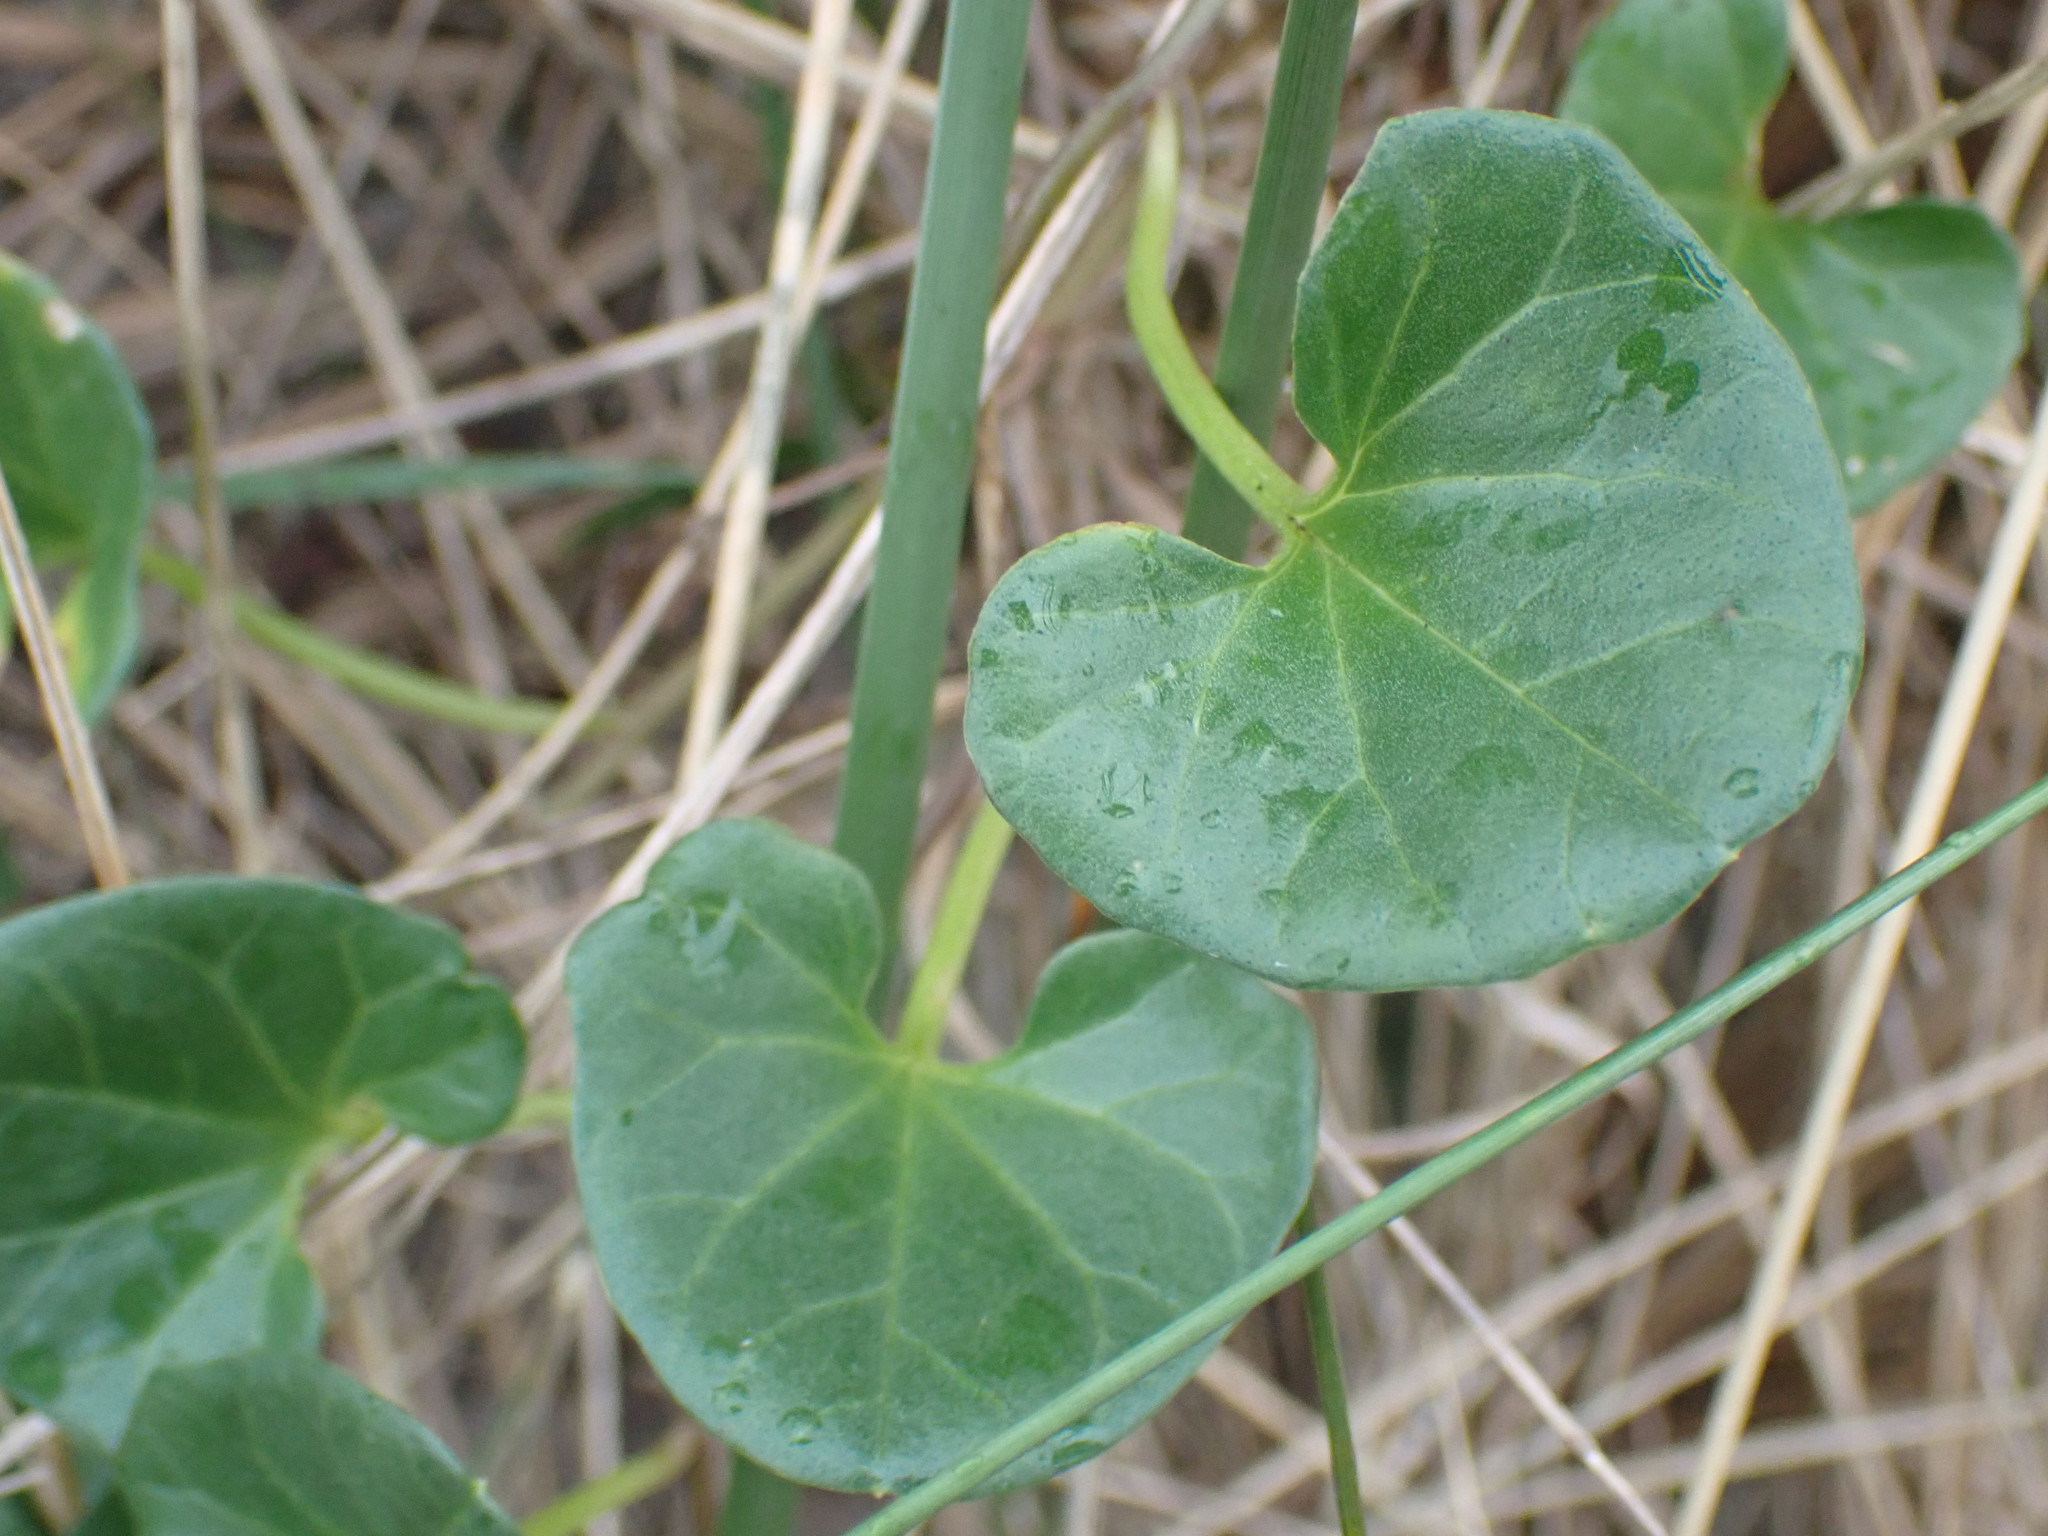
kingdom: Plantae
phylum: Tracheophyta
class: Magnoliopsida
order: Solanales
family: Convolvulaceae
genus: Calystegia
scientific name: Calystegia soldanella
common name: Sea bindweed
